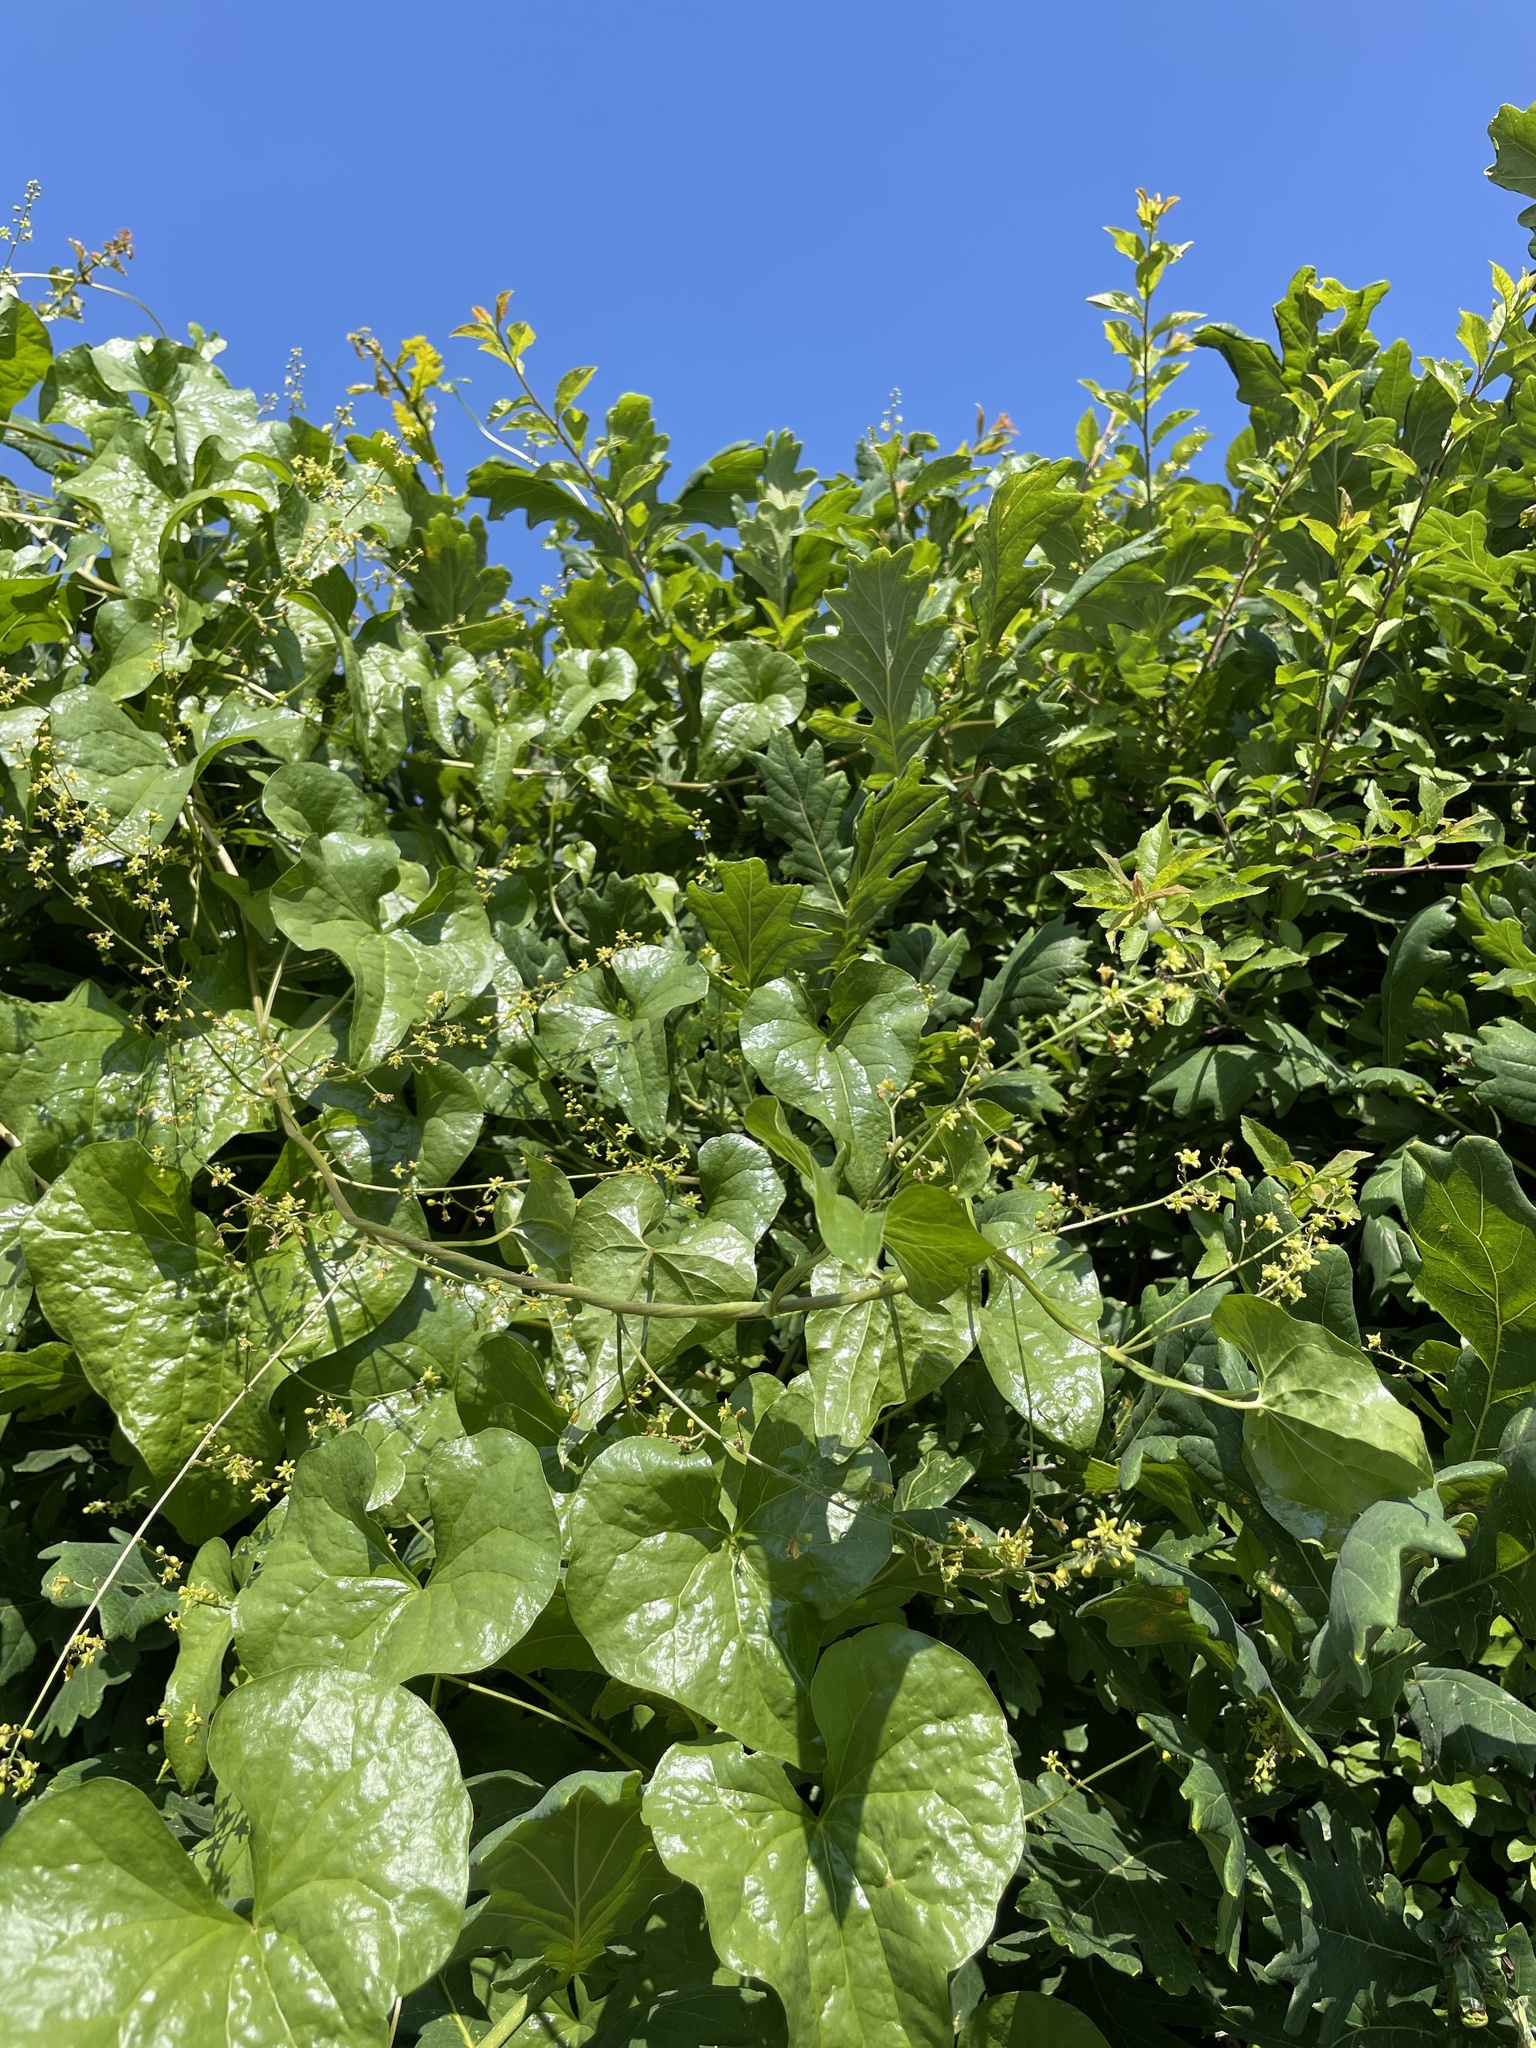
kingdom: Plantae
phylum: Tracheophyta
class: Liliopsida
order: Dioscoreales
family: Dioscoreaceae
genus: Dioscorea
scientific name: Dioscorea communis
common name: Black-bindweed
